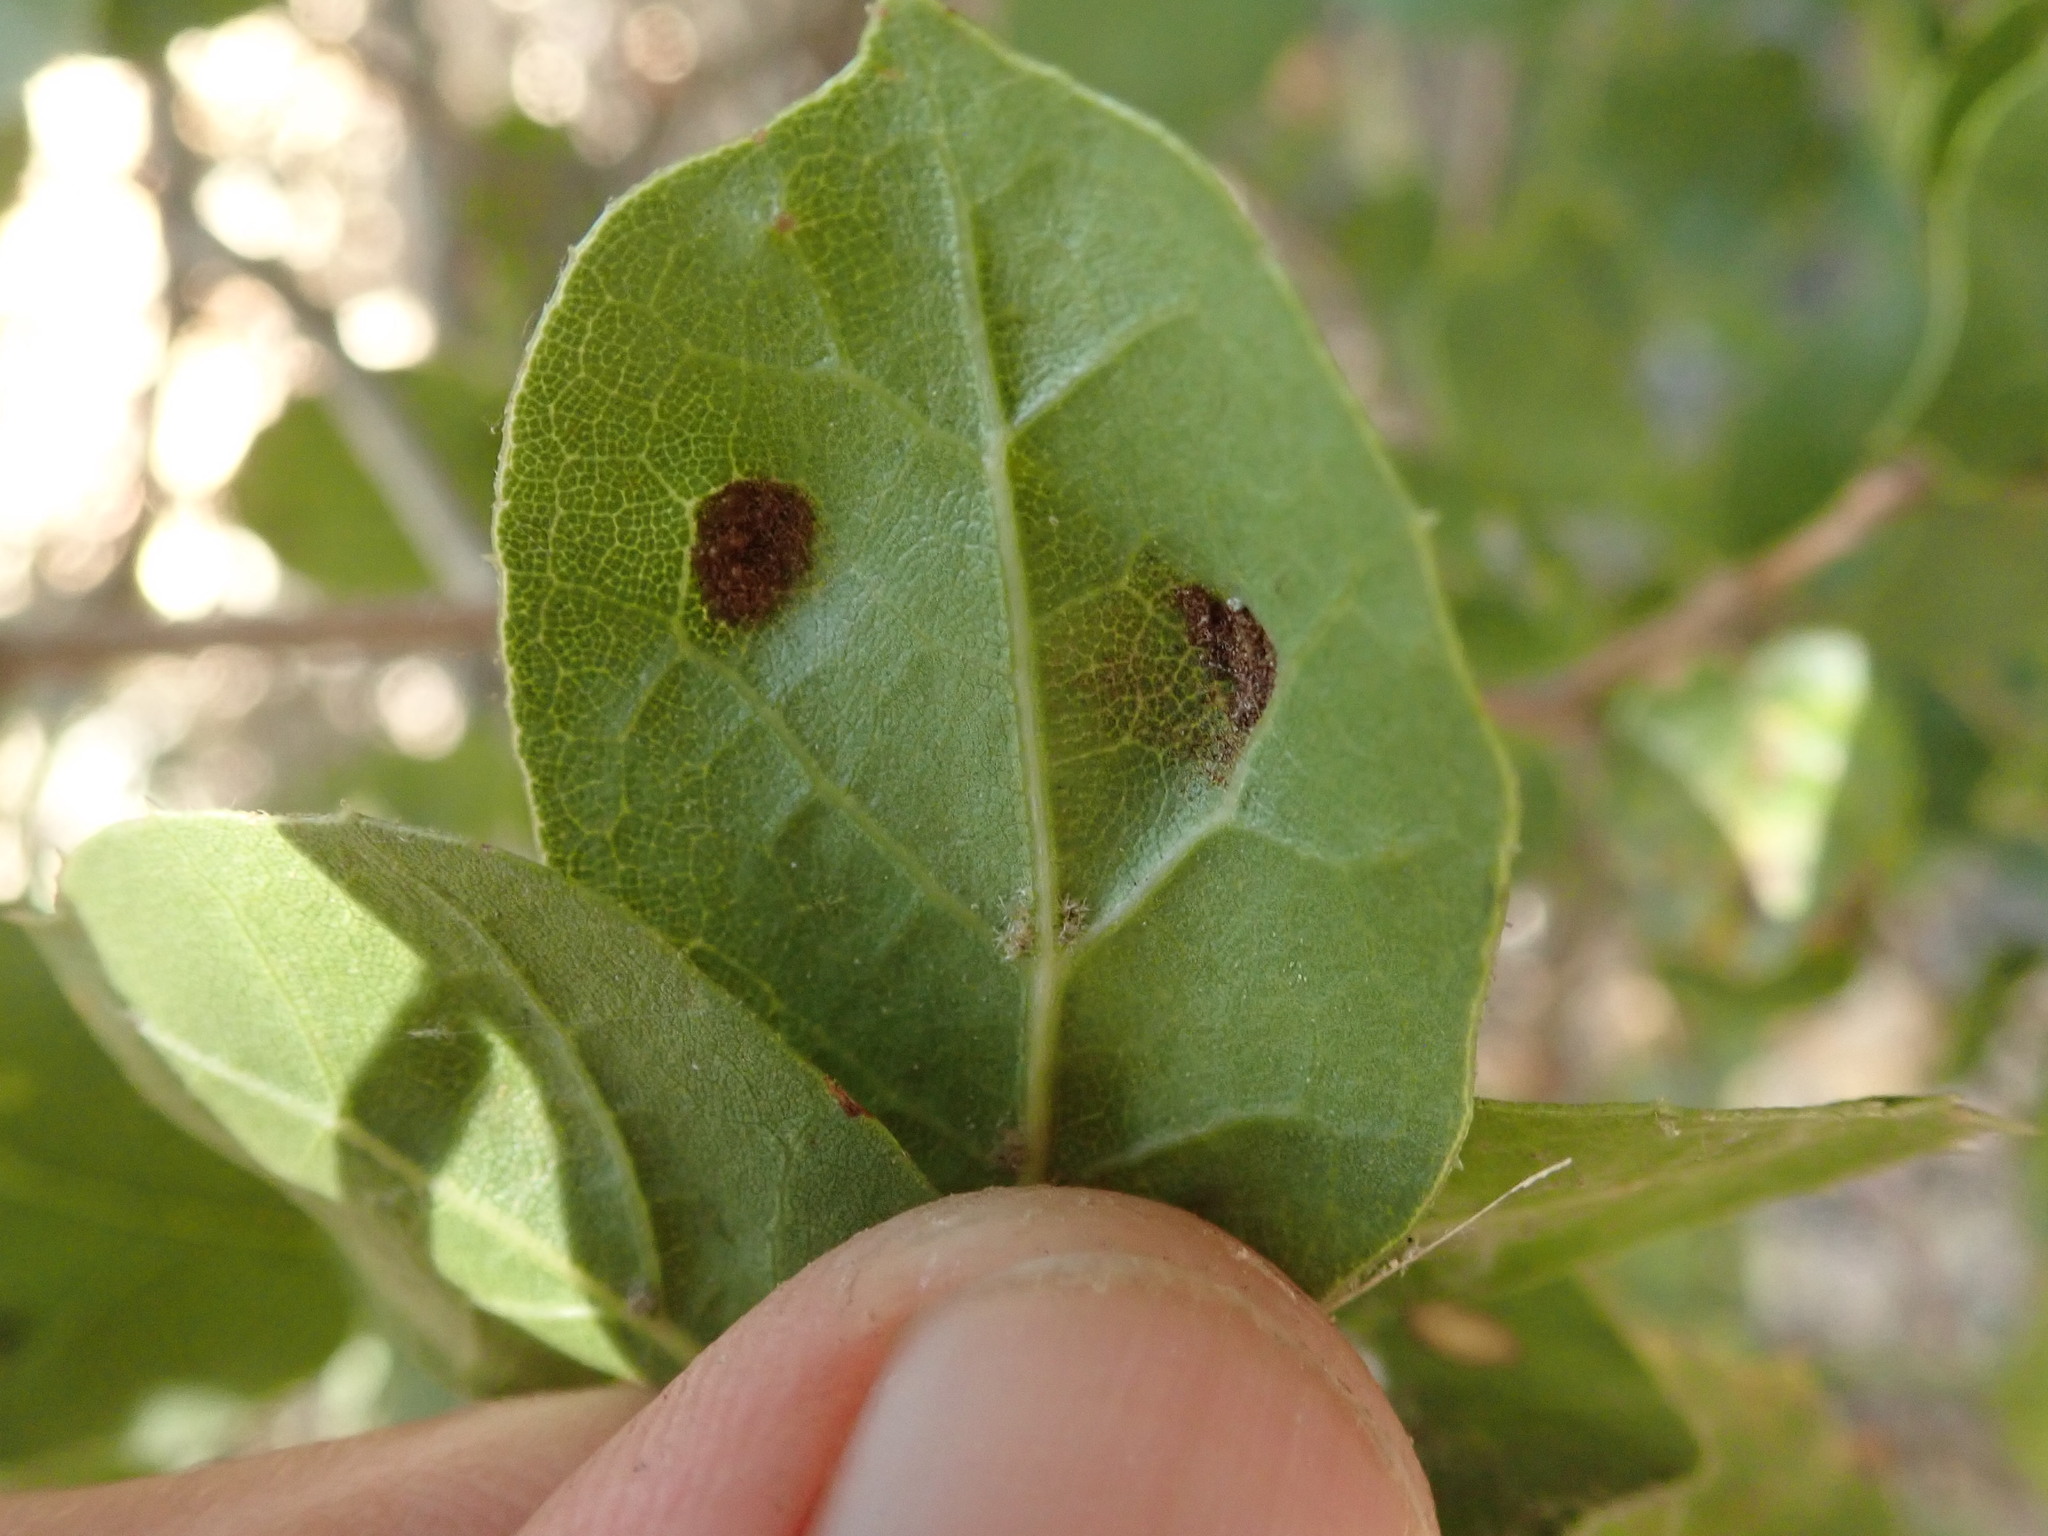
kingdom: Animalia
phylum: Arthropoda
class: Arachnida
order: Trombidiformes
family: Eriophyidae
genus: Aceria
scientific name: Aceria
